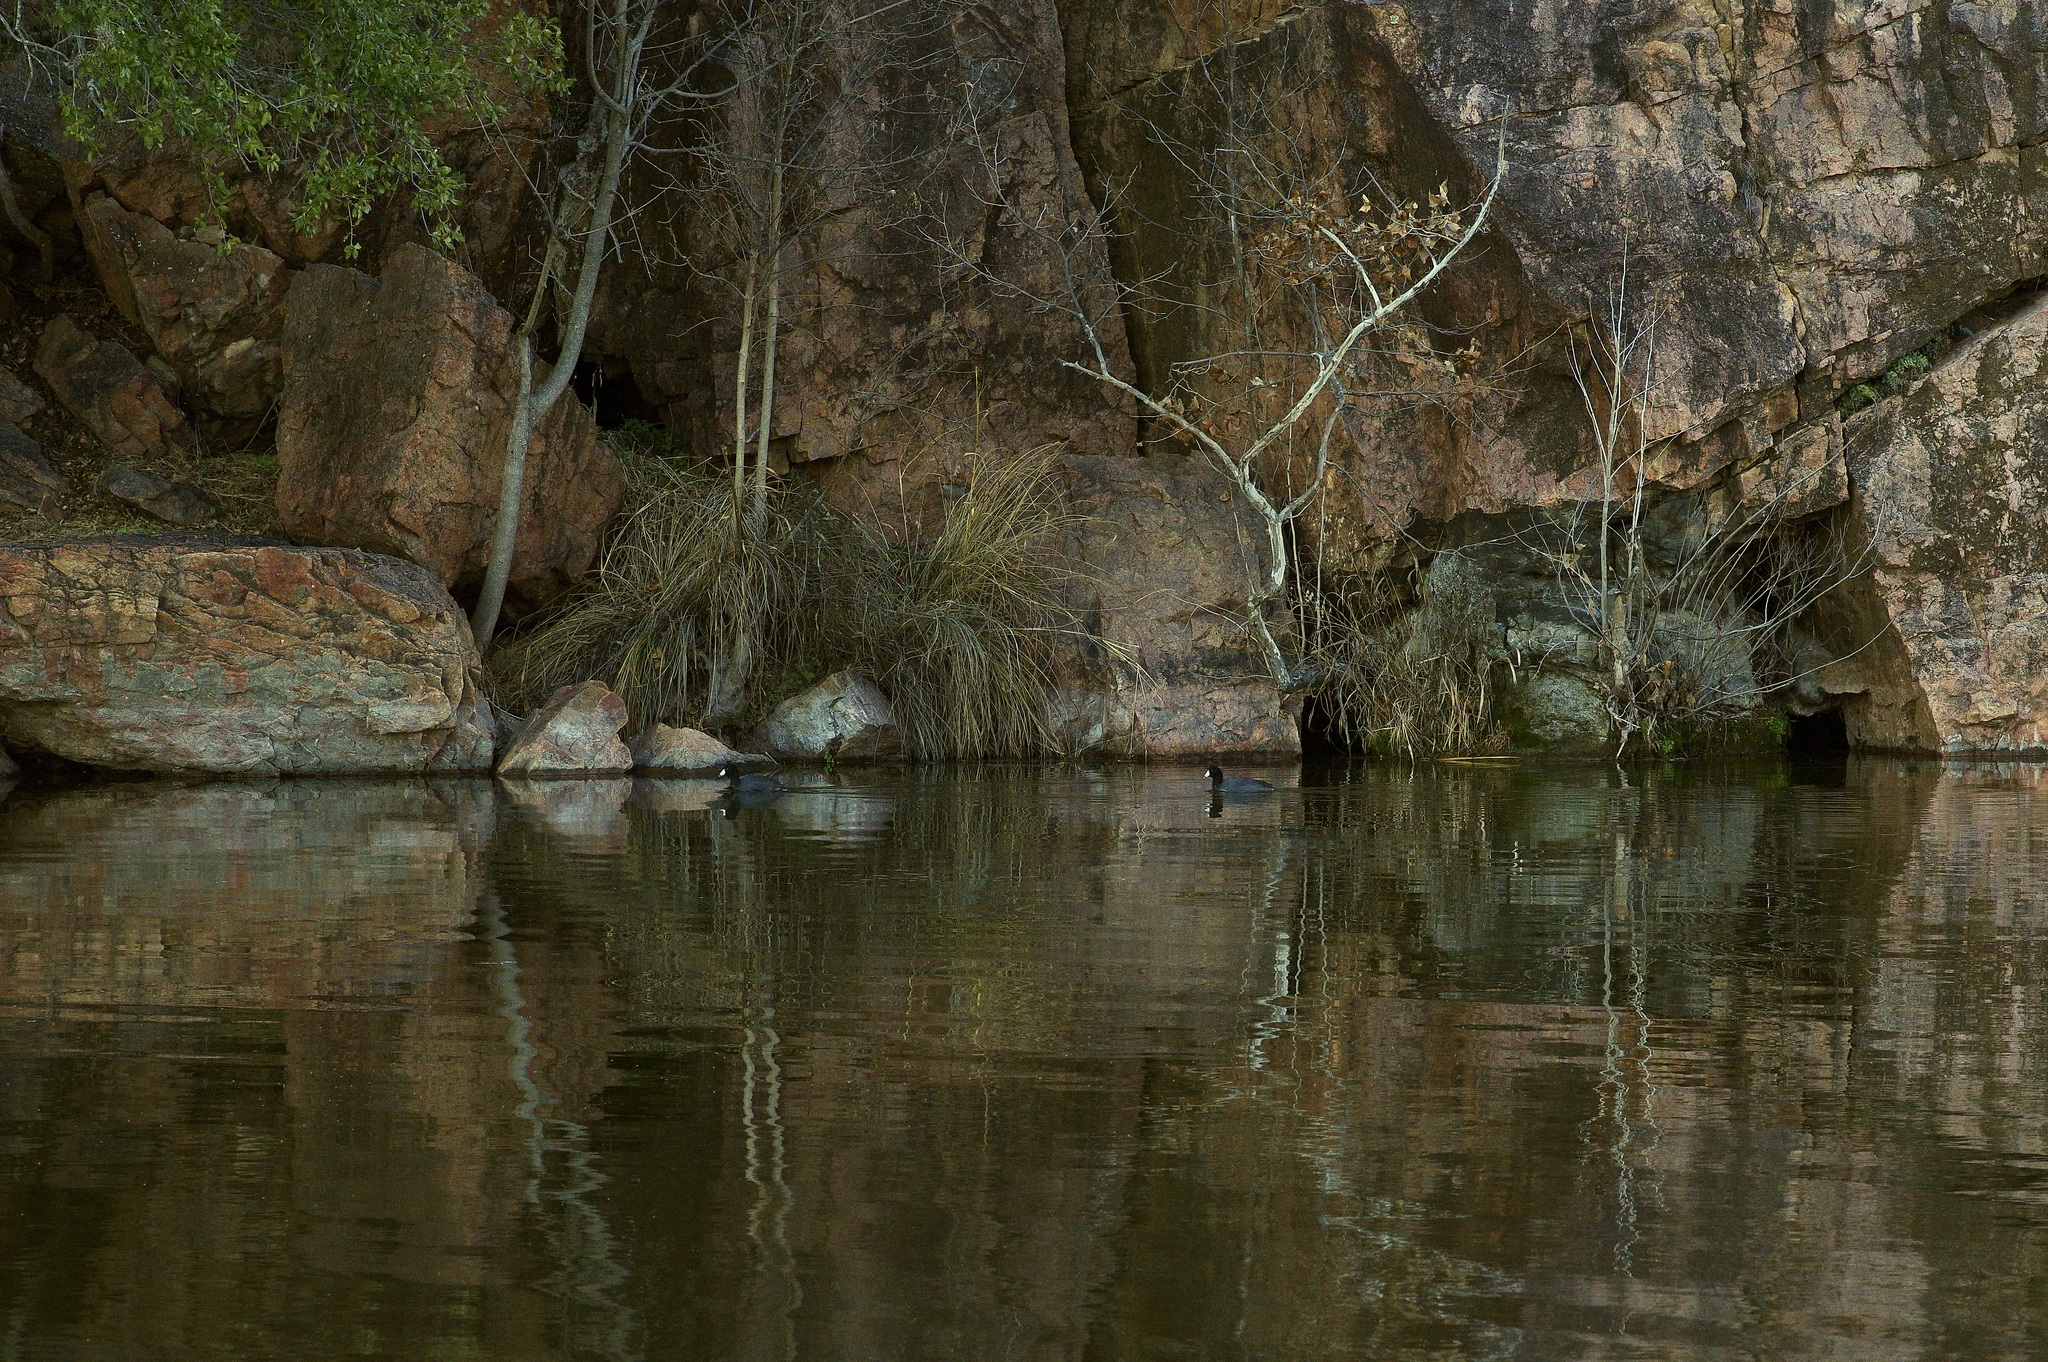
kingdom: Animalia
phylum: Chordata
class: Aves
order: Gruiformes
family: Rallidae
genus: Fulica
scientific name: Fulica americana
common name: American coot
